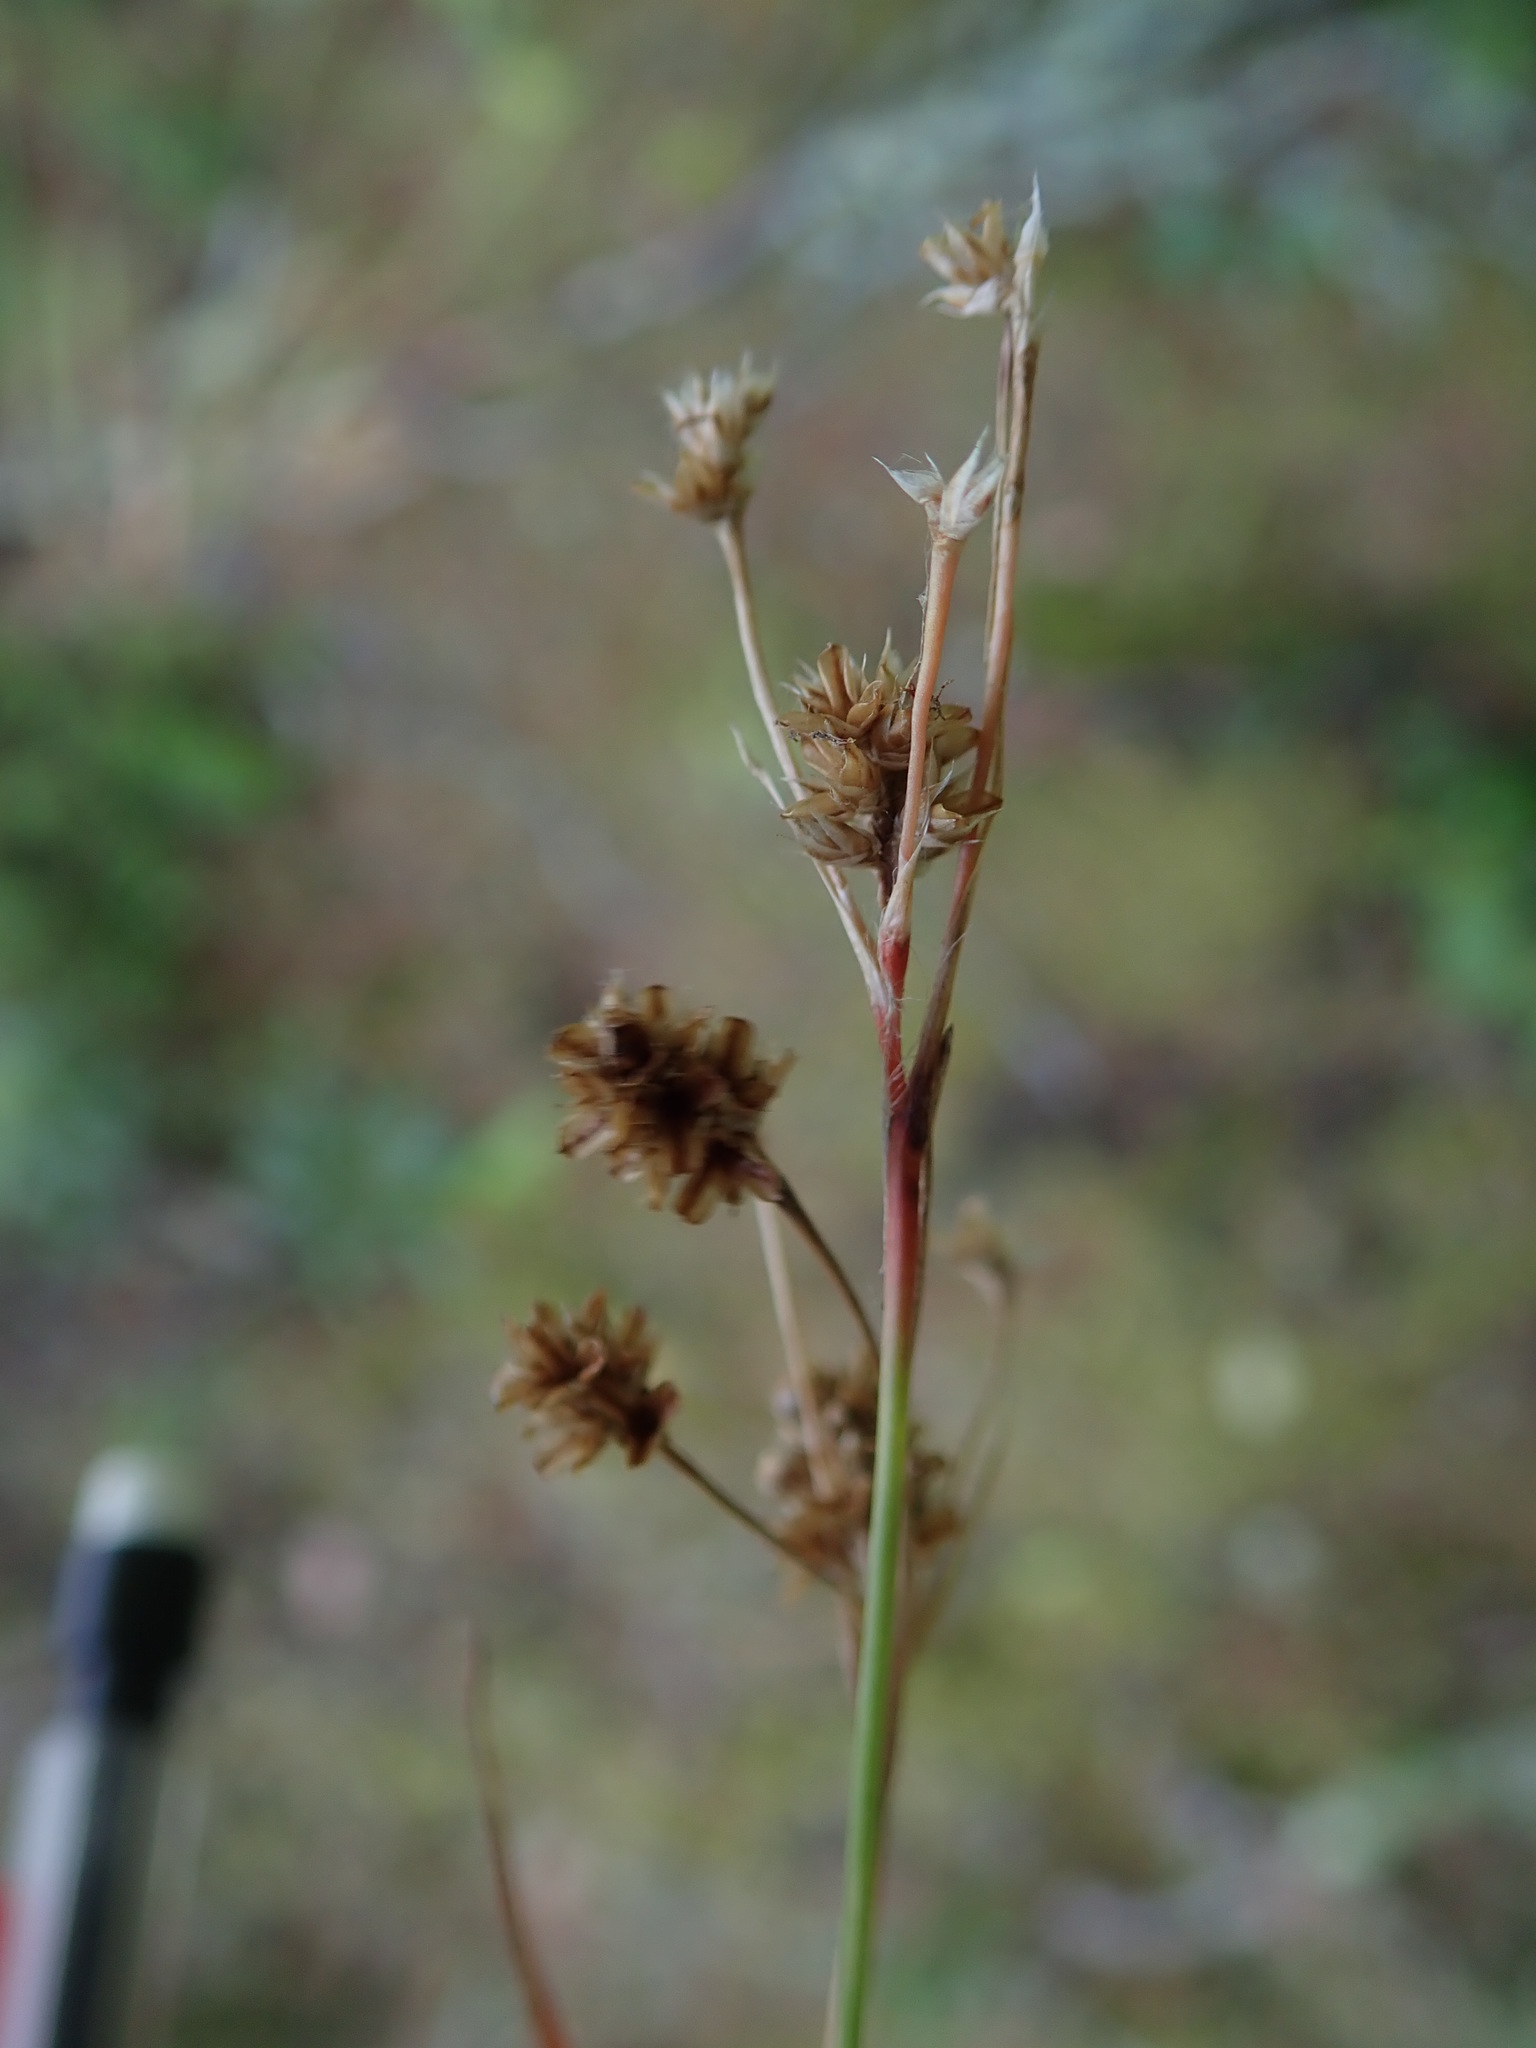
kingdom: Plantae
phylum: Tracheophyta
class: Liliopsida
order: Poales
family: Juncaceae
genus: Luzula
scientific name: Luzula multiflora
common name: Heath wood-rush
